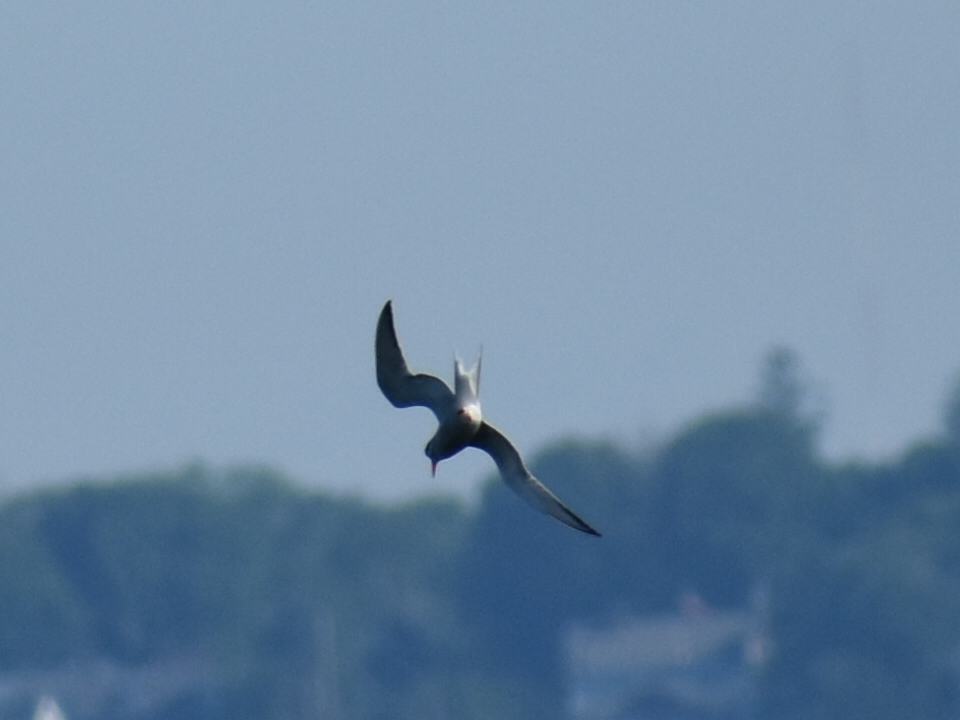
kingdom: Animalia
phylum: Chordata
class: Aves
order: Charadriiformes
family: Laridae
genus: Sterna
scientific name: Sterna hirundo
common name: Common tern
